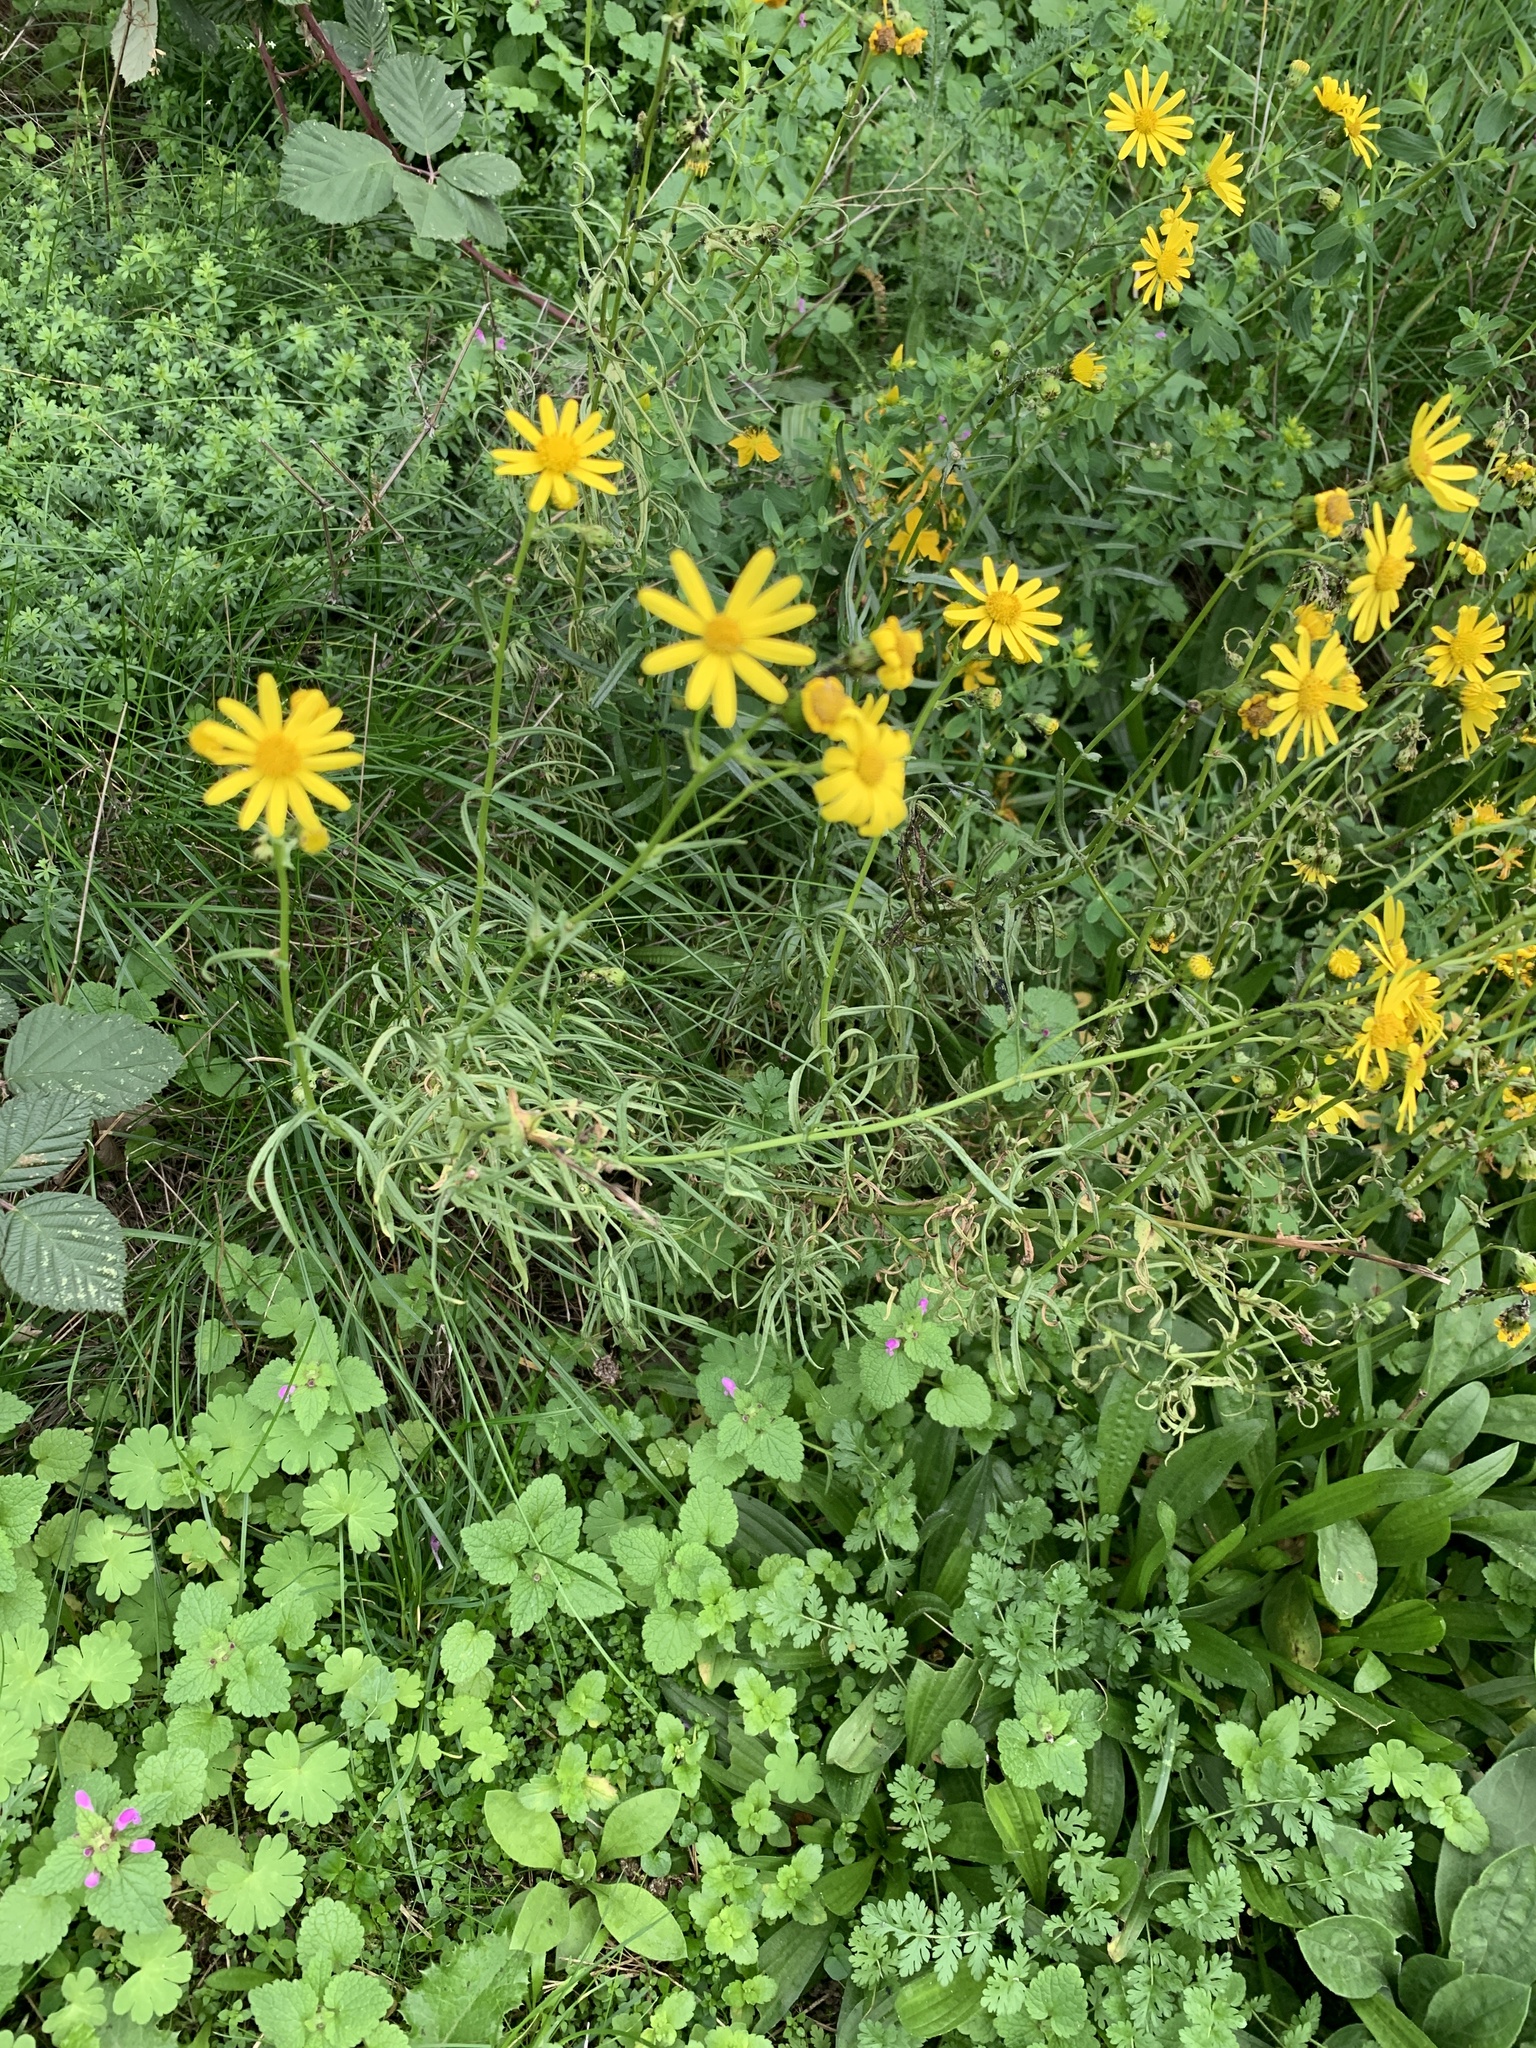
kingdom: Plantae
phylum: Tracheophyta
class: Magnoliopsida
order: Asterales
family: Asteraceae
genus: Senecio
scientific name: Senecio inaequidens
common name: Narrow-leaved ragwort
